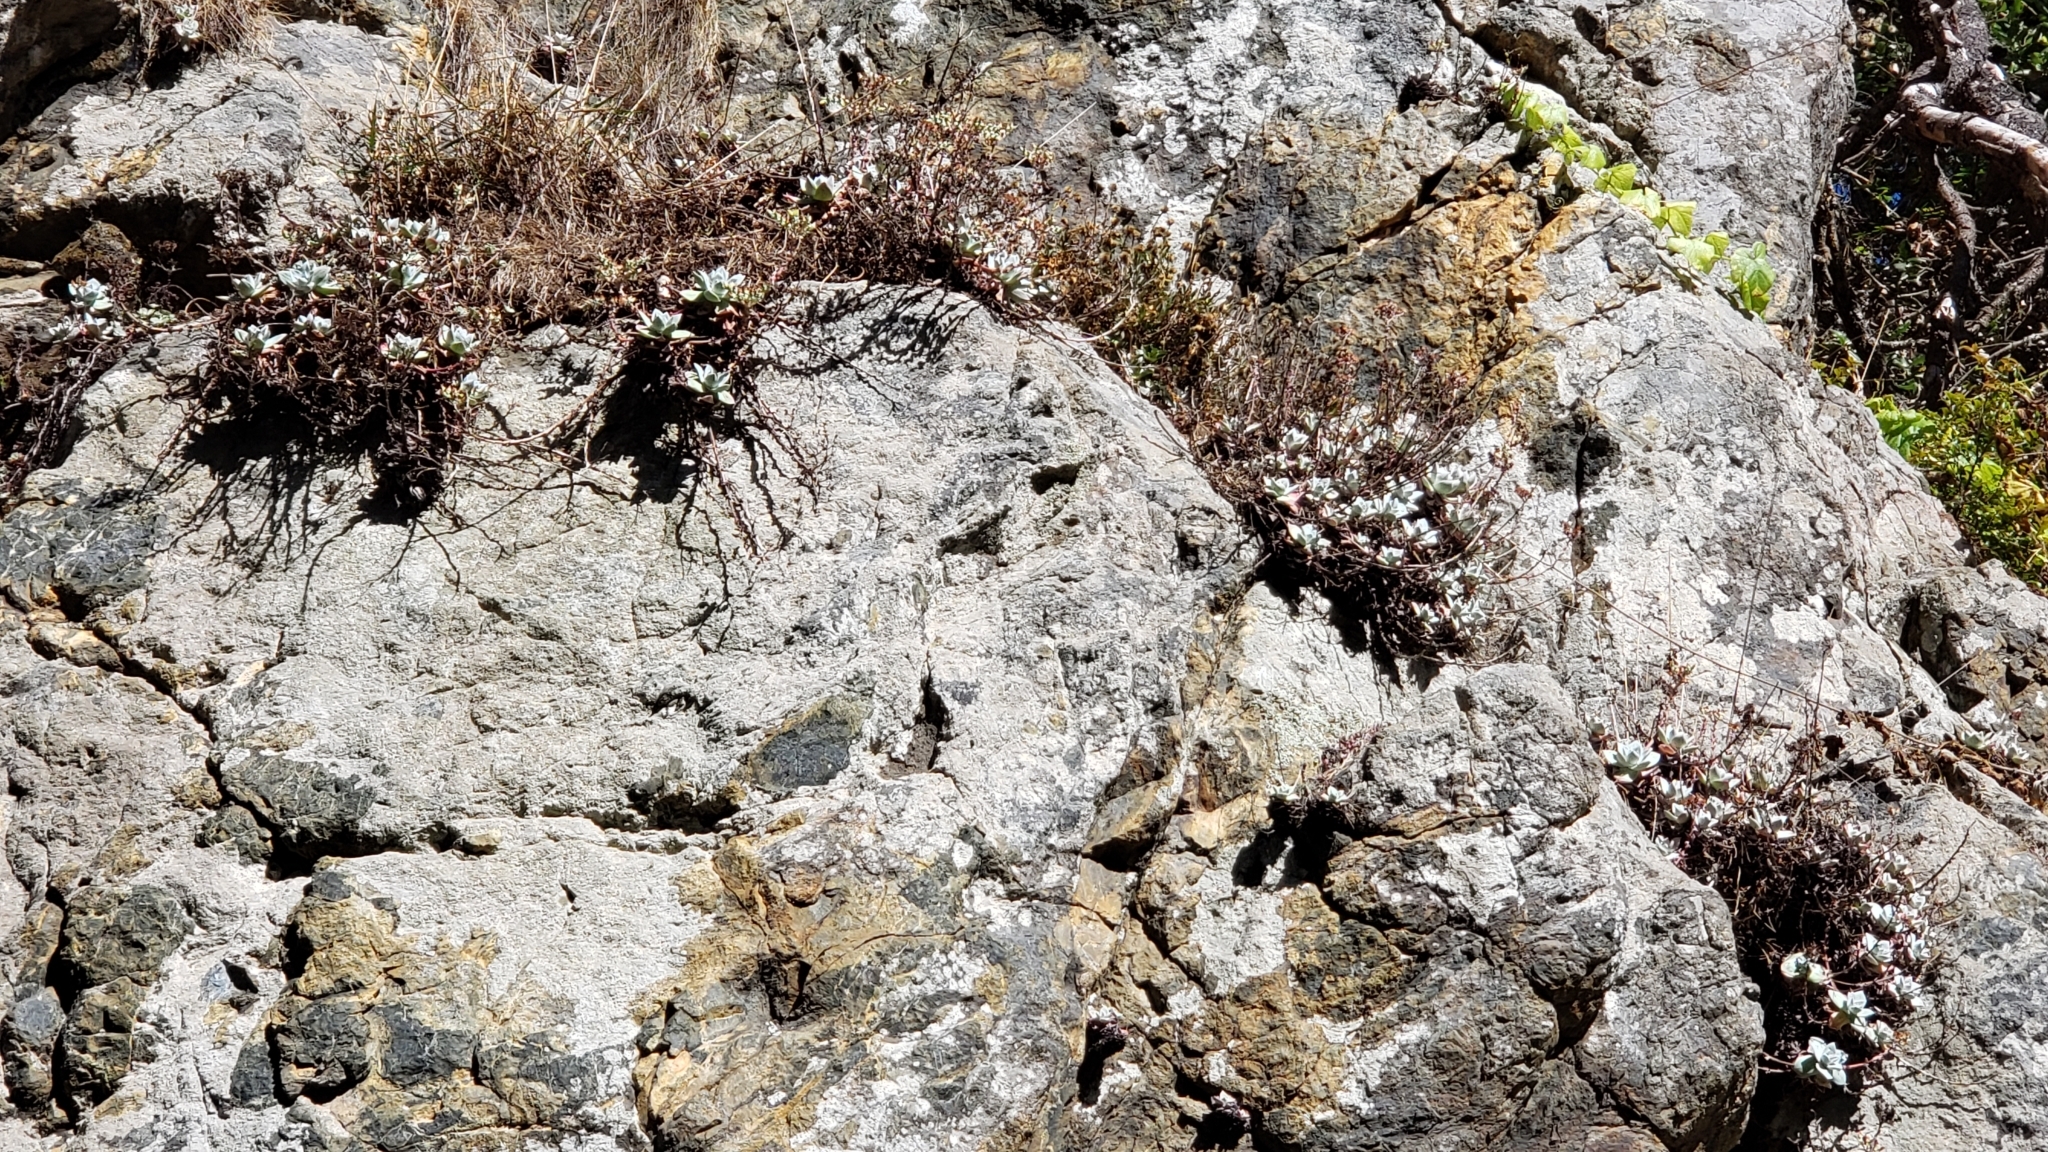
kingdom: Plantae
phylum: Tracheophyta
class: Magnoliopsida
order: Saxifragales
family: Crassulaceae
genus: Dudleya
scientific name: Dudleya farinosa
